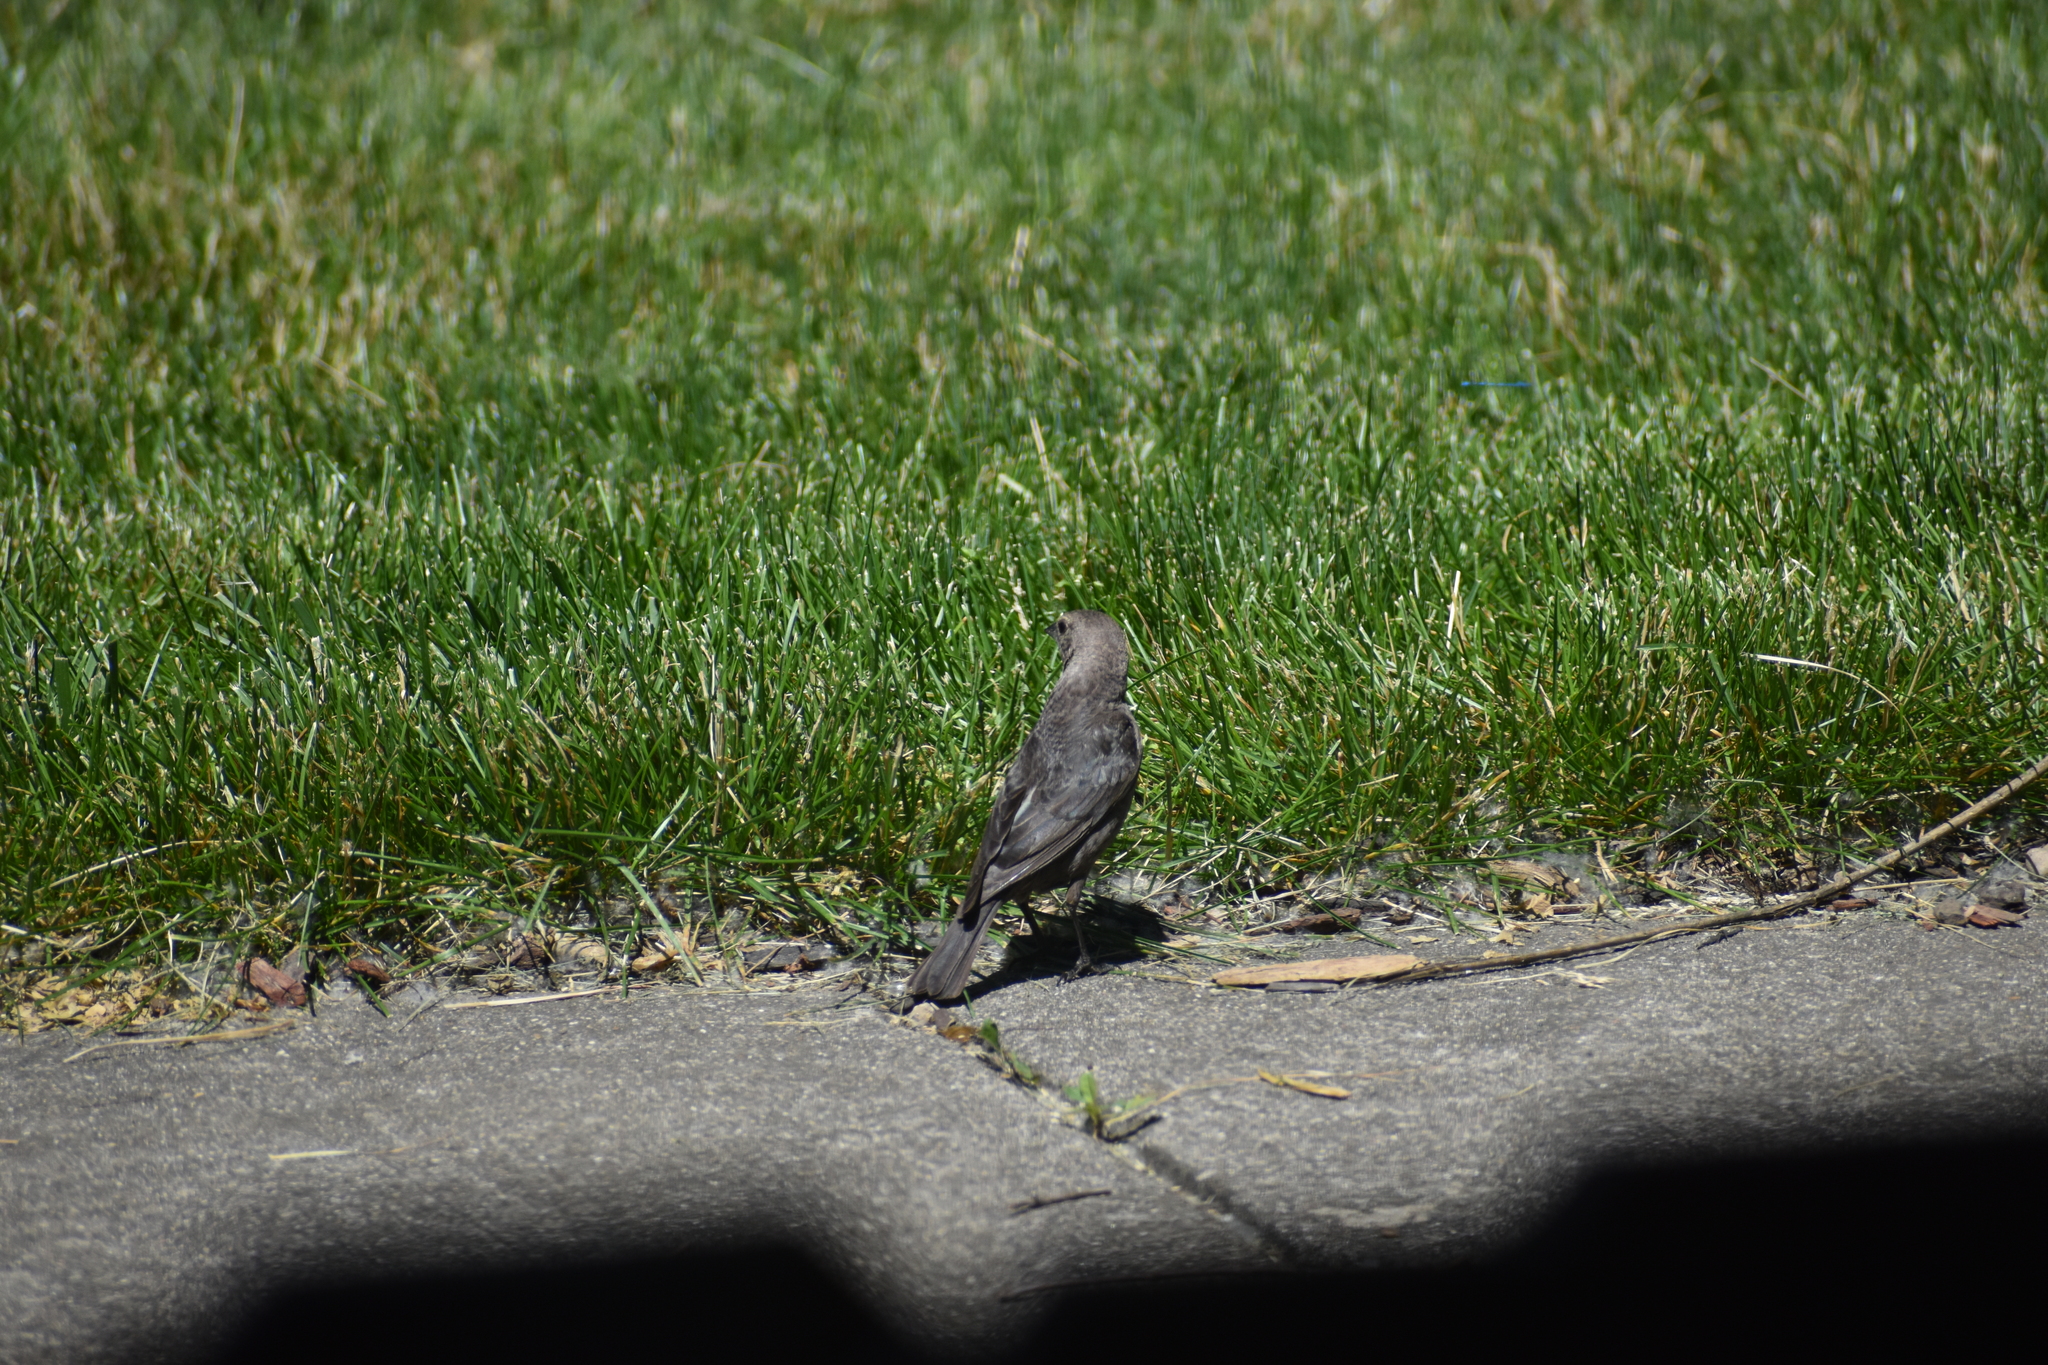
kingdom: Animalia
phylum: Chordata
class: Aves
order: Passeriformes
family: Icteridae
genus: Molothrus
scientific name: Molothrus ater
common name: Brown-headed cowbird
